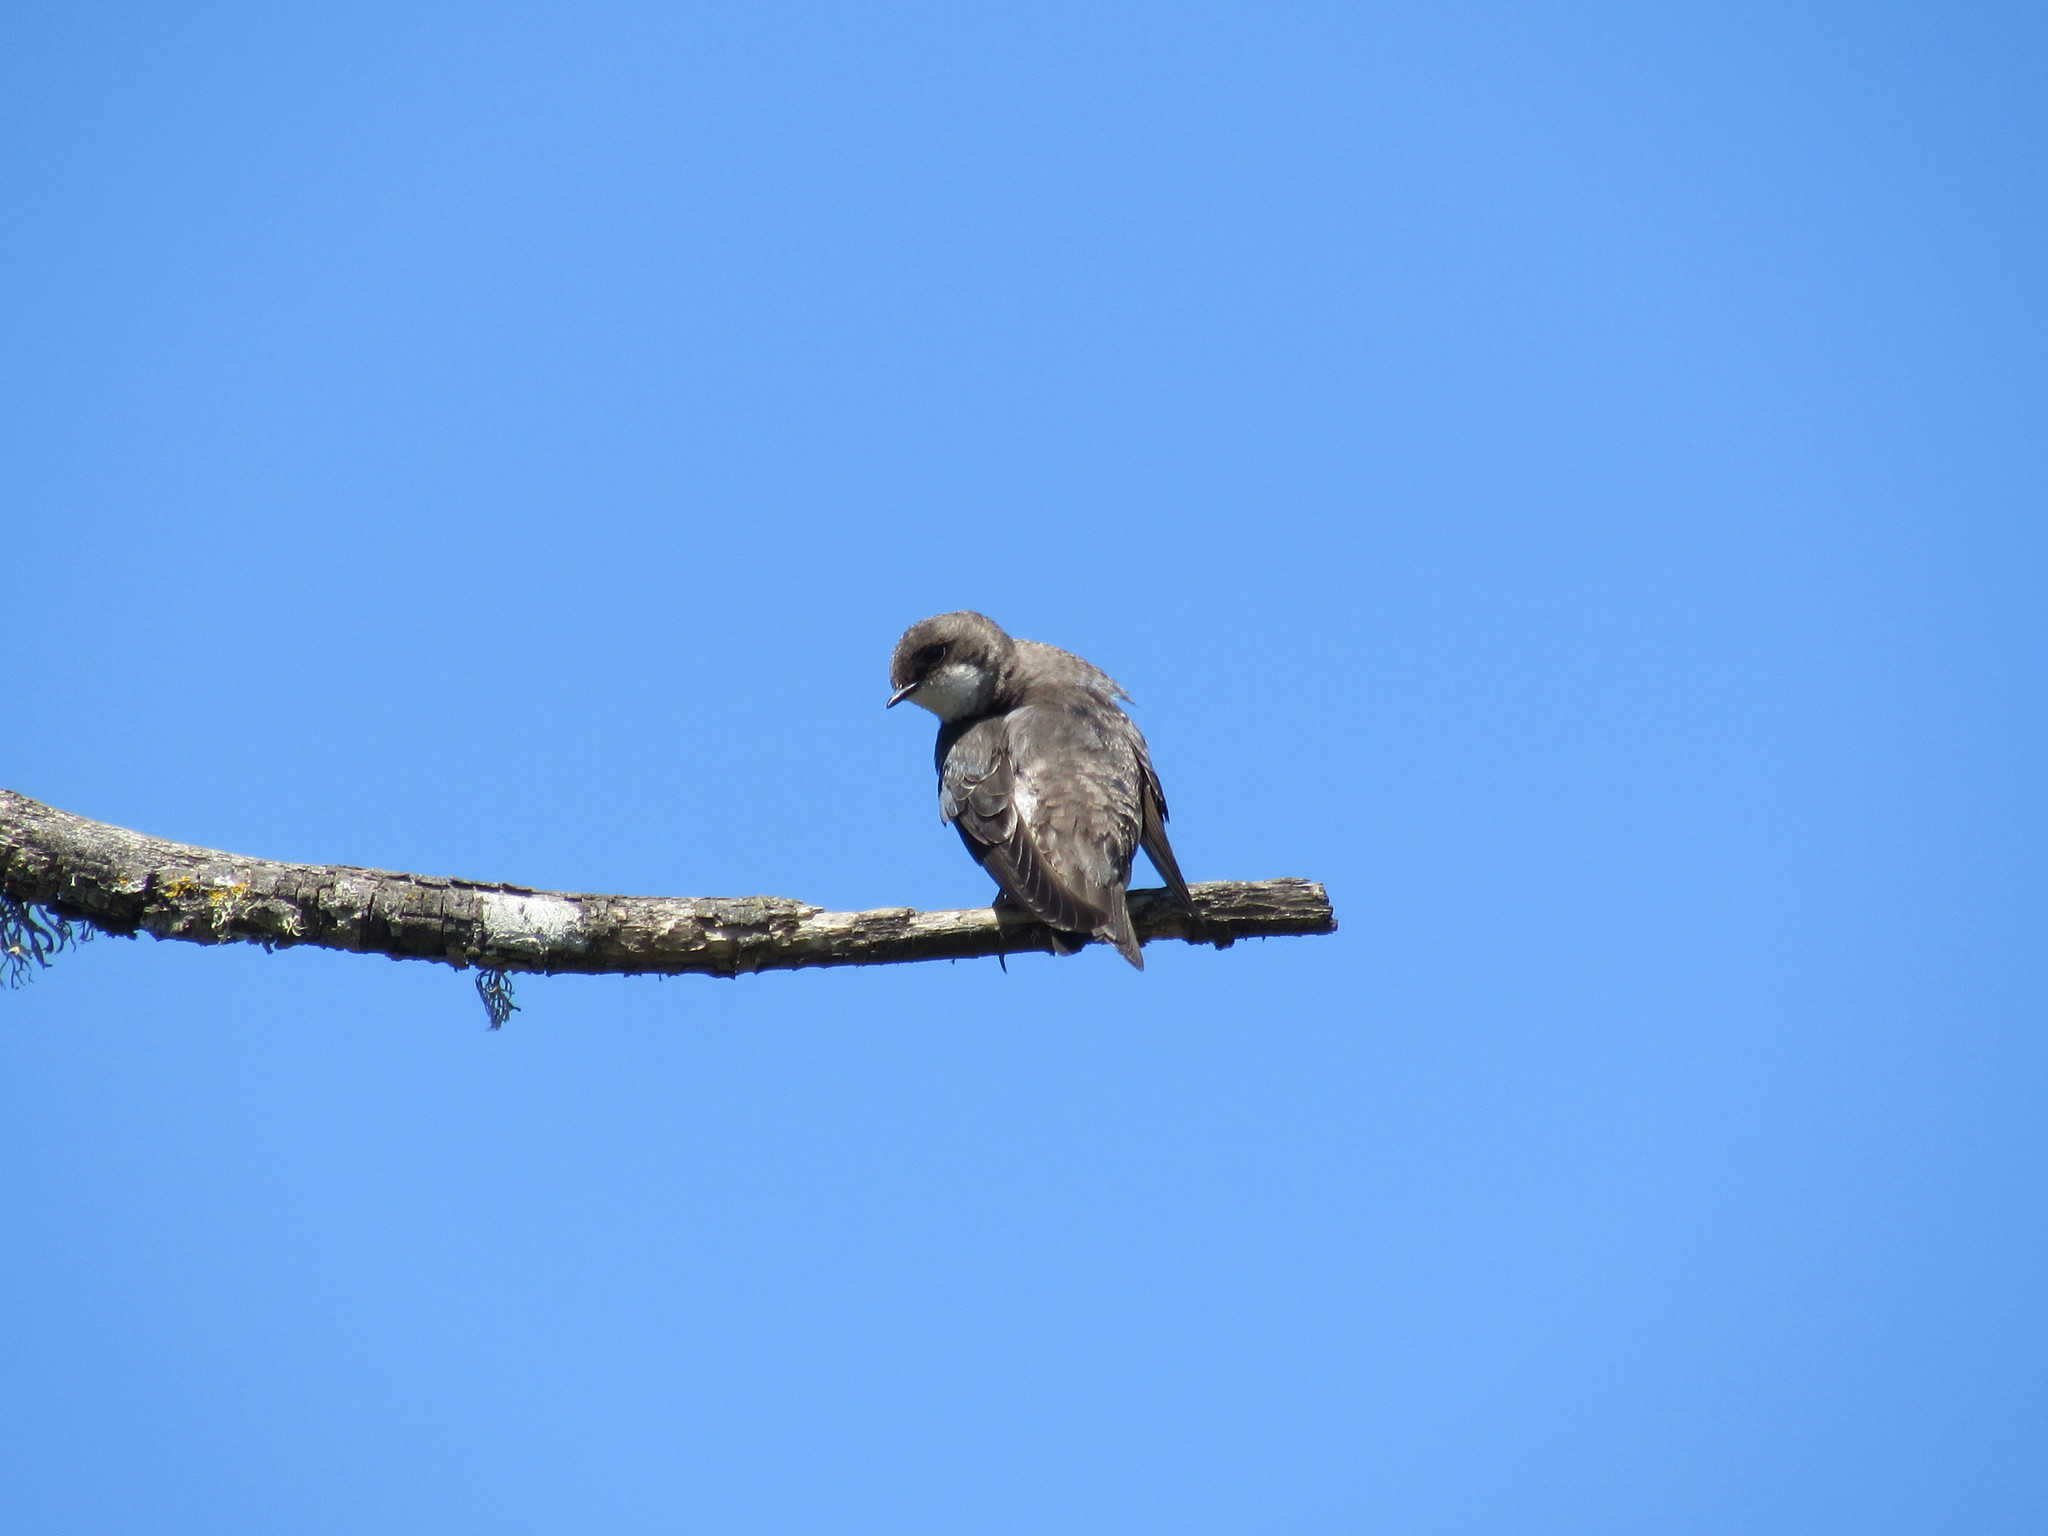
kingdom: Animalia
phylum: Chordata
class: Aves
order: Passeriformes
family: Hirundinidae
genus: Tachycineta
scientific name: Tachycineta bicolor
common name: Tree swallow
